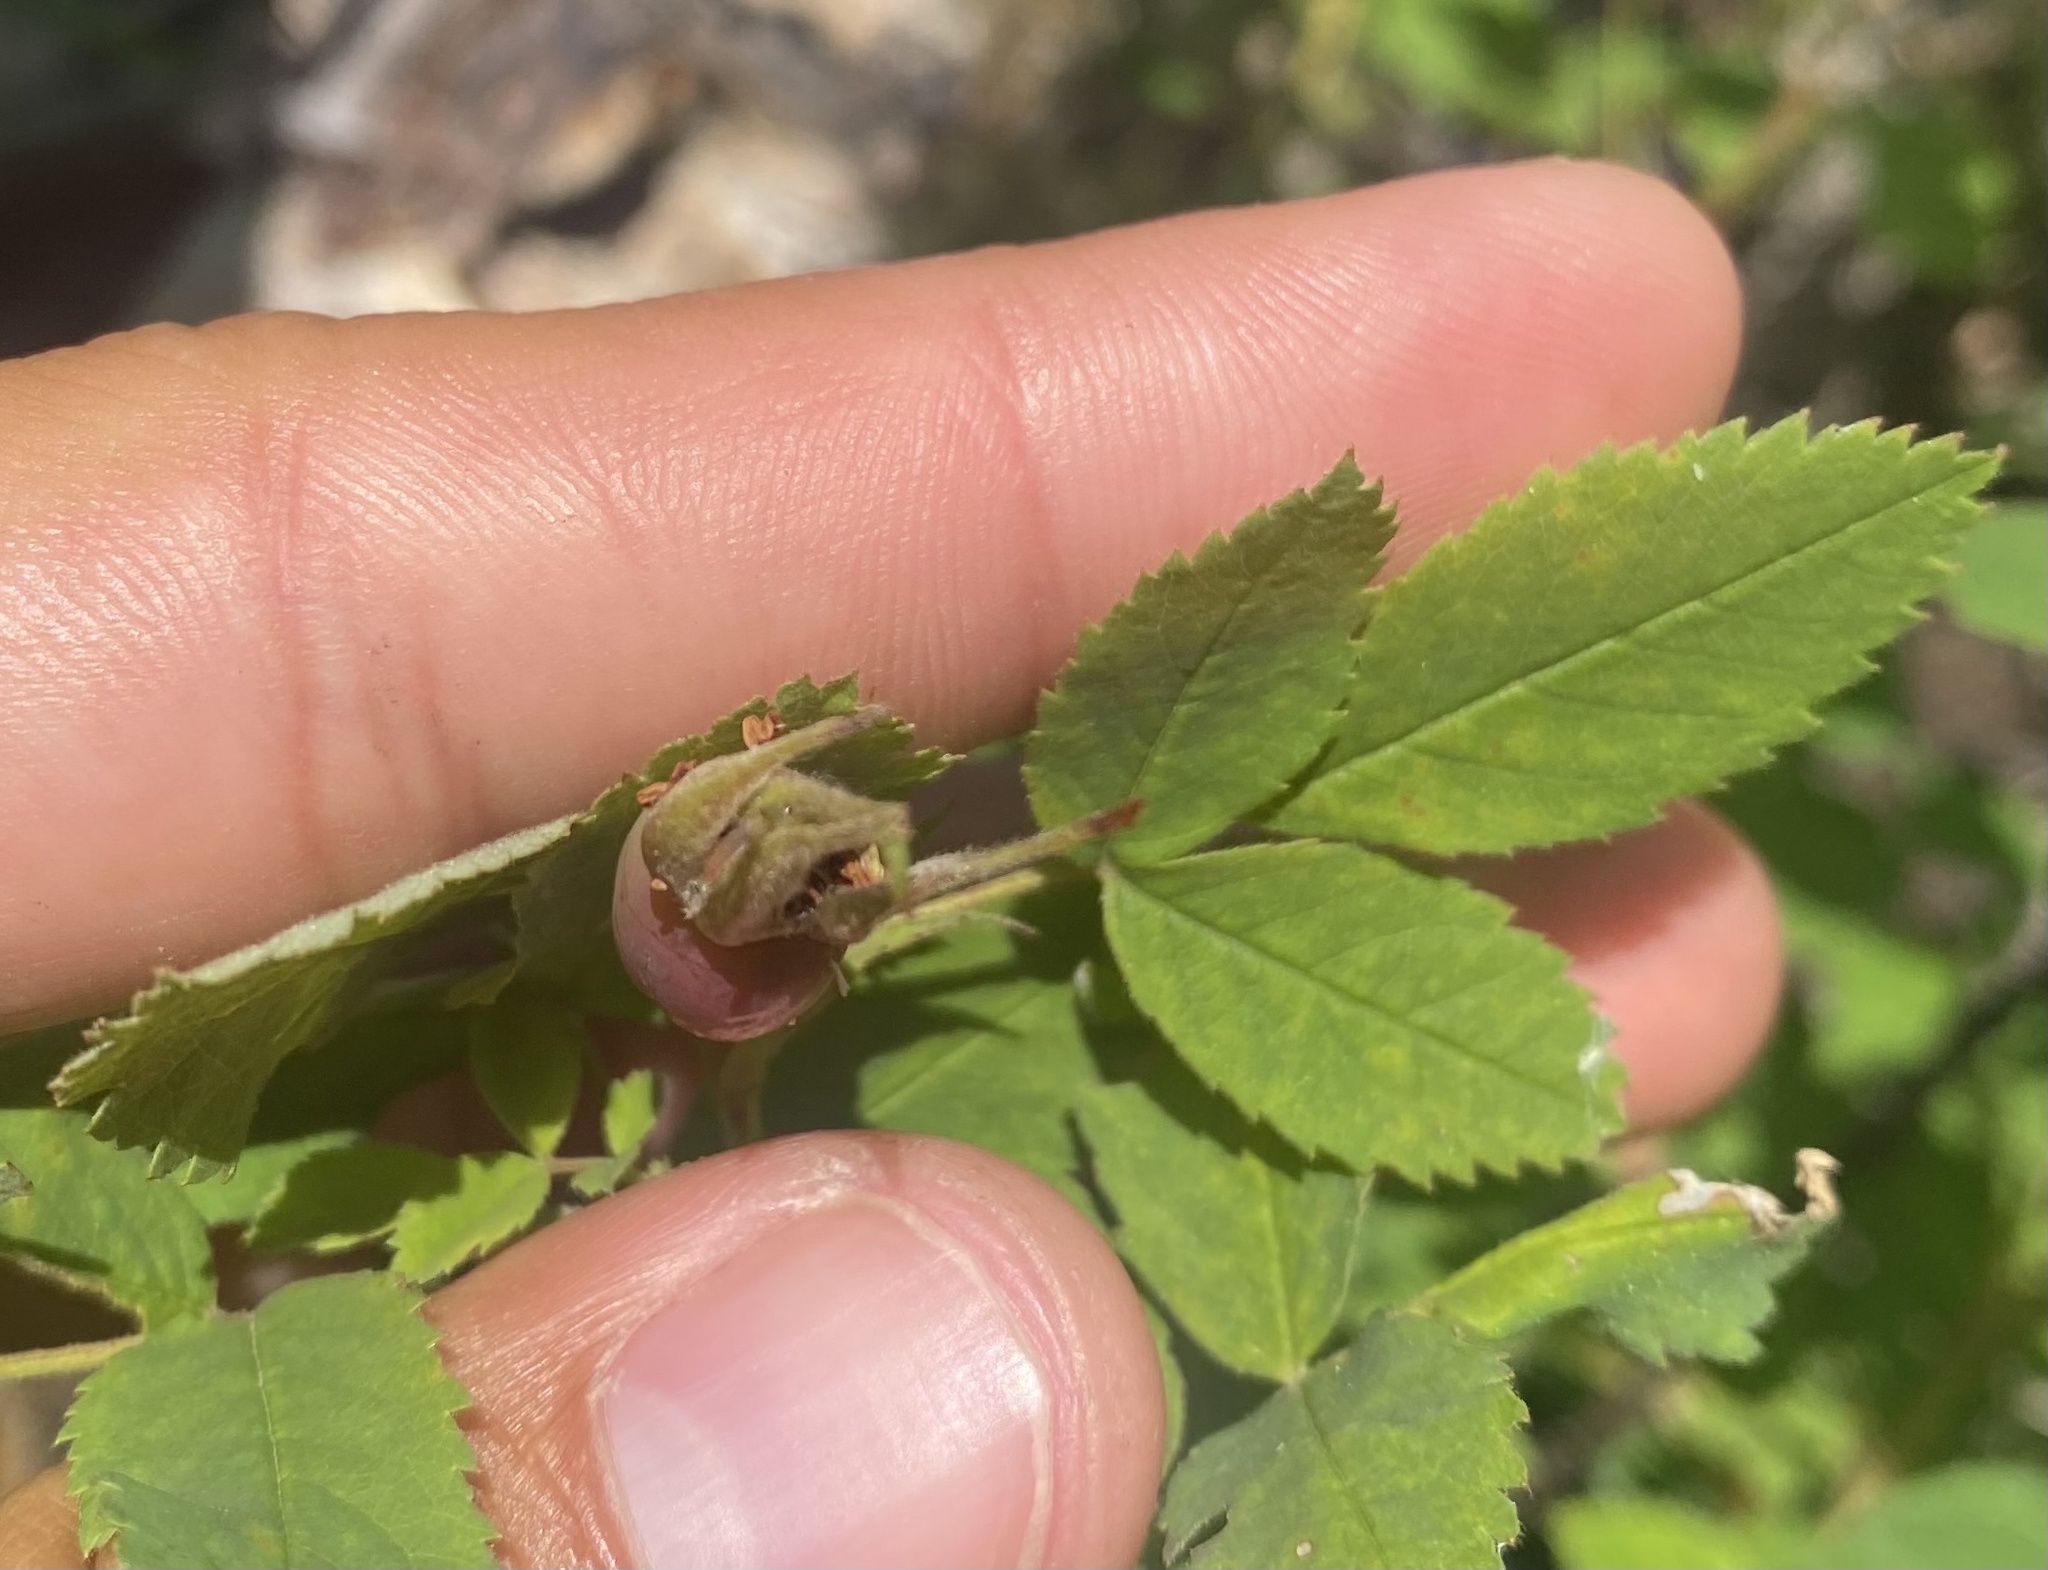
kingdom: Plantae
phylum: Tracheophyta
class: Magnoliopsida
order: Rosales
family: Rosaceae
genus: Rosa
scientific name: Rosa acicularis
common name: Prickly rose
